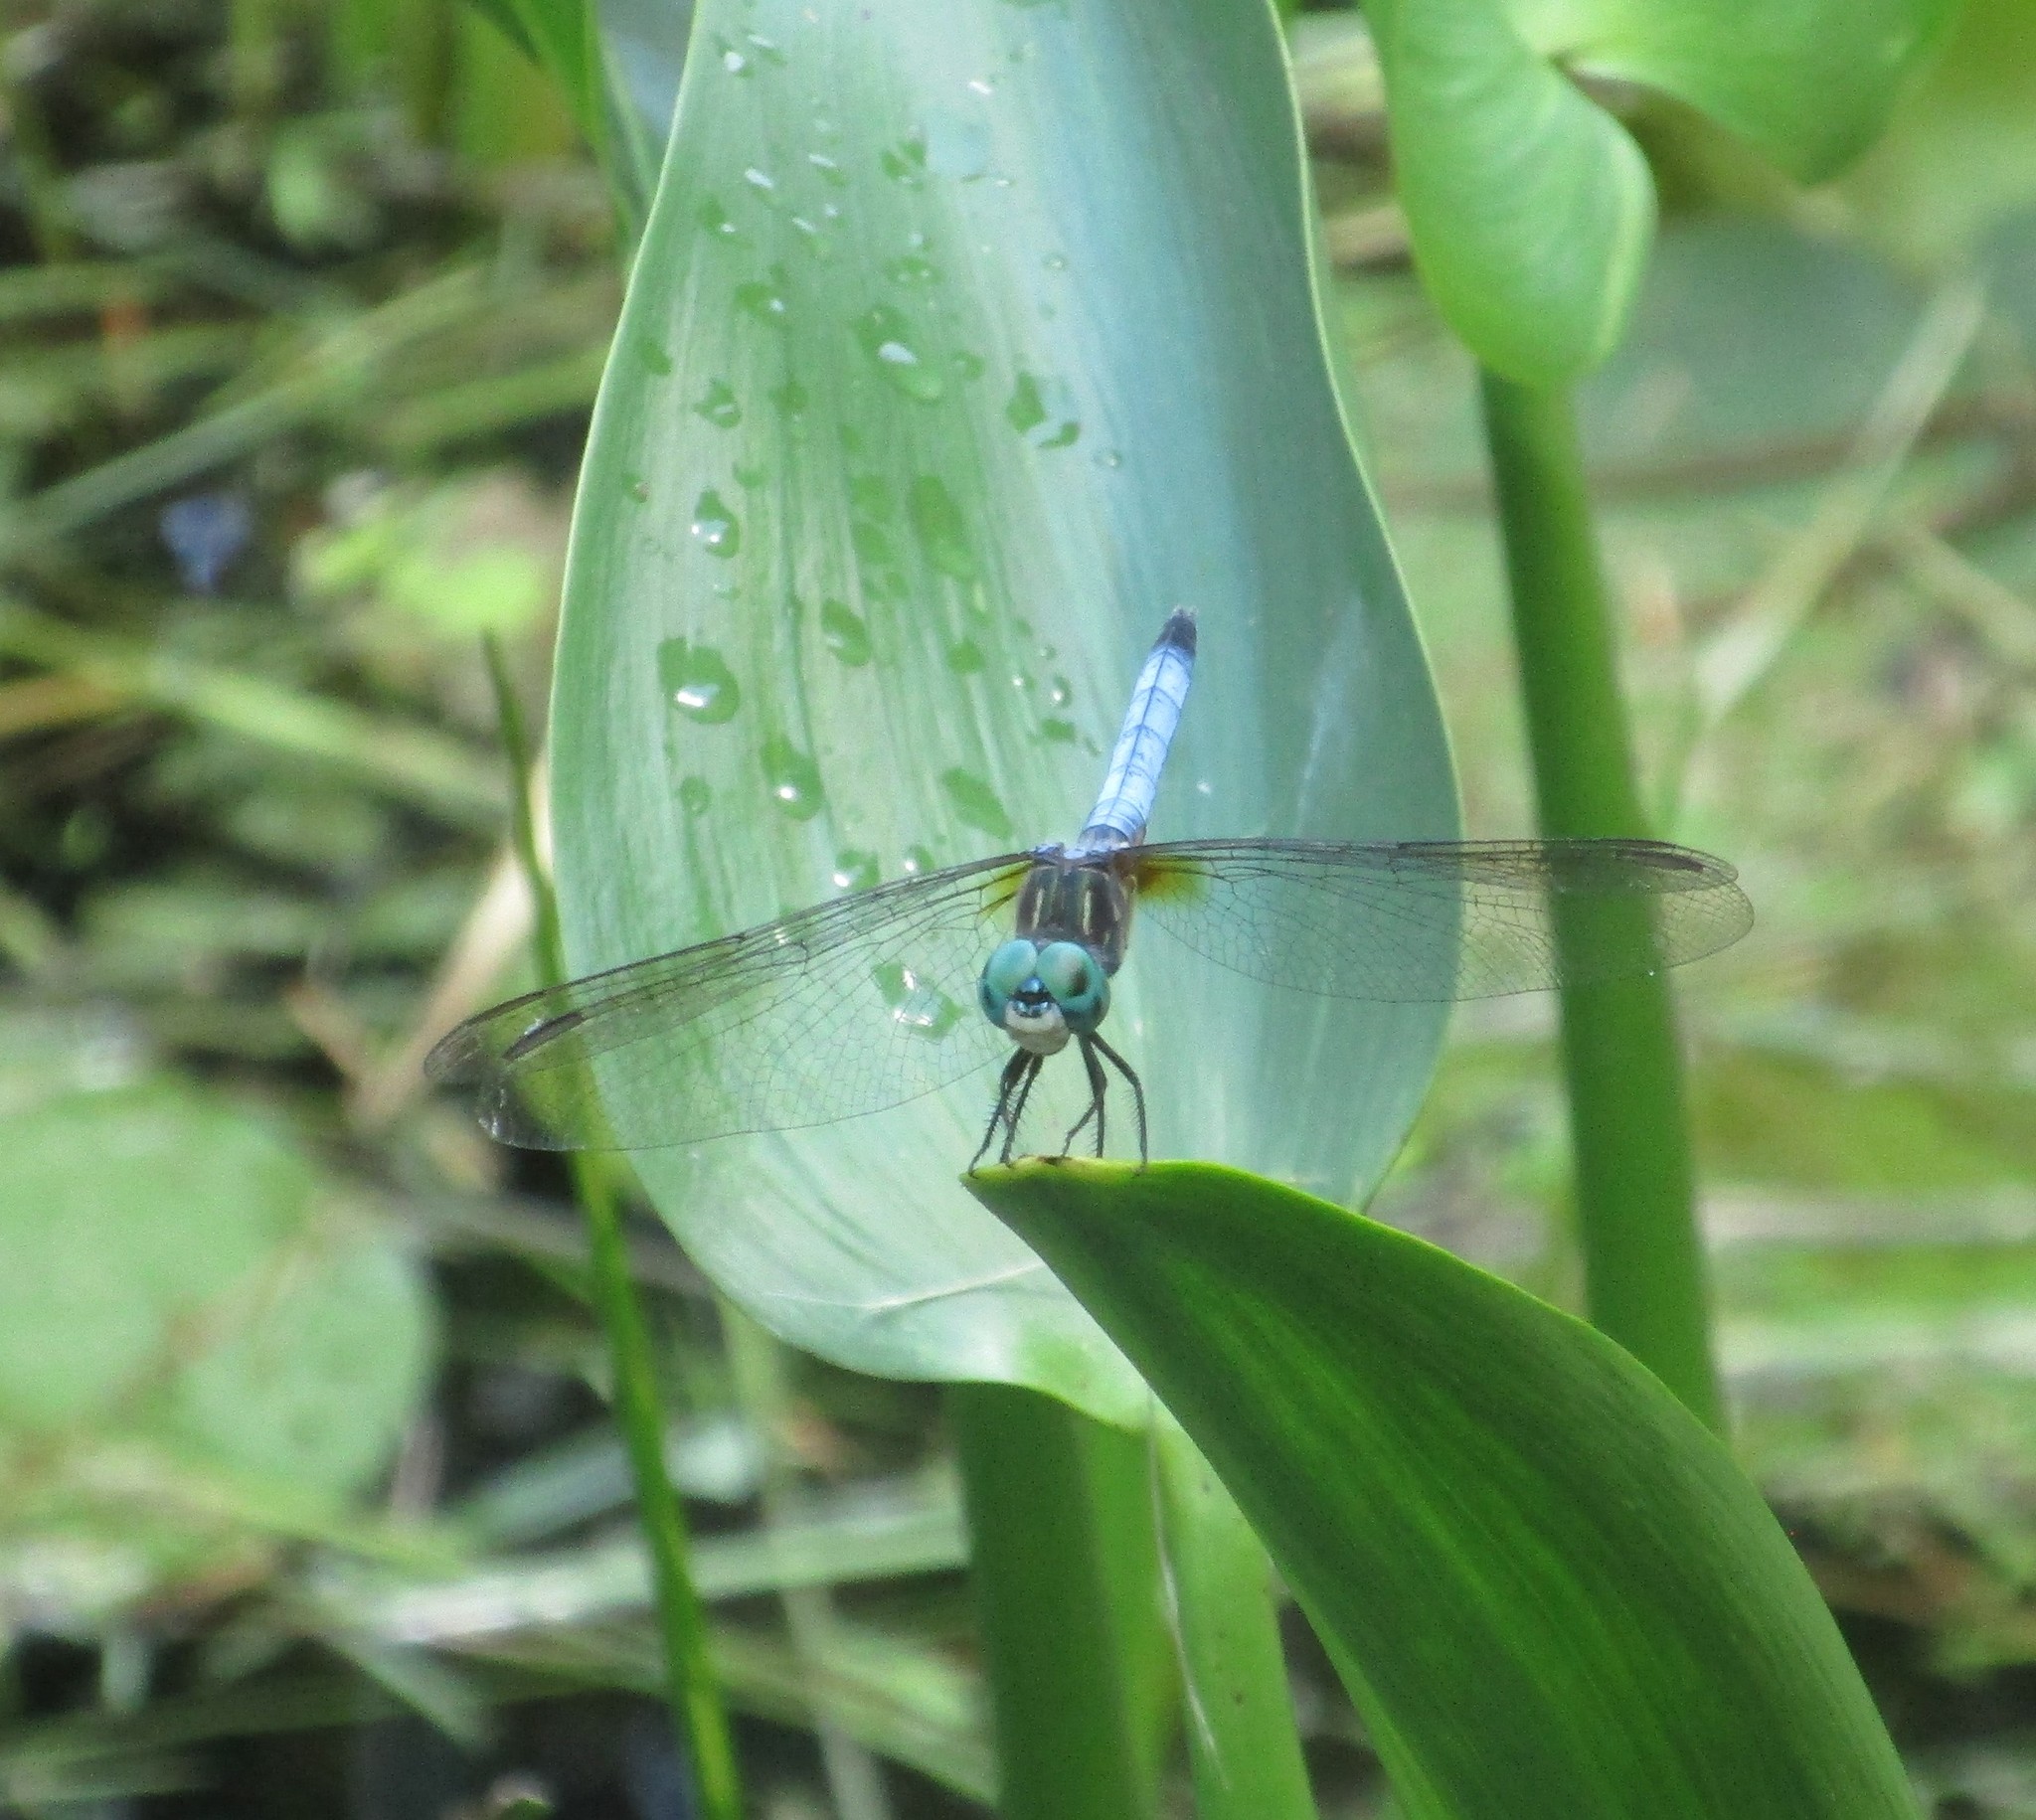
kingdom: Animalia
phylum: Arthropoda
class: Insecta
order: Odonata
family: Libellulidae
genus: Pachydiplax
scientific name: Pachydiplax longipennis
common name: Blue dasher
